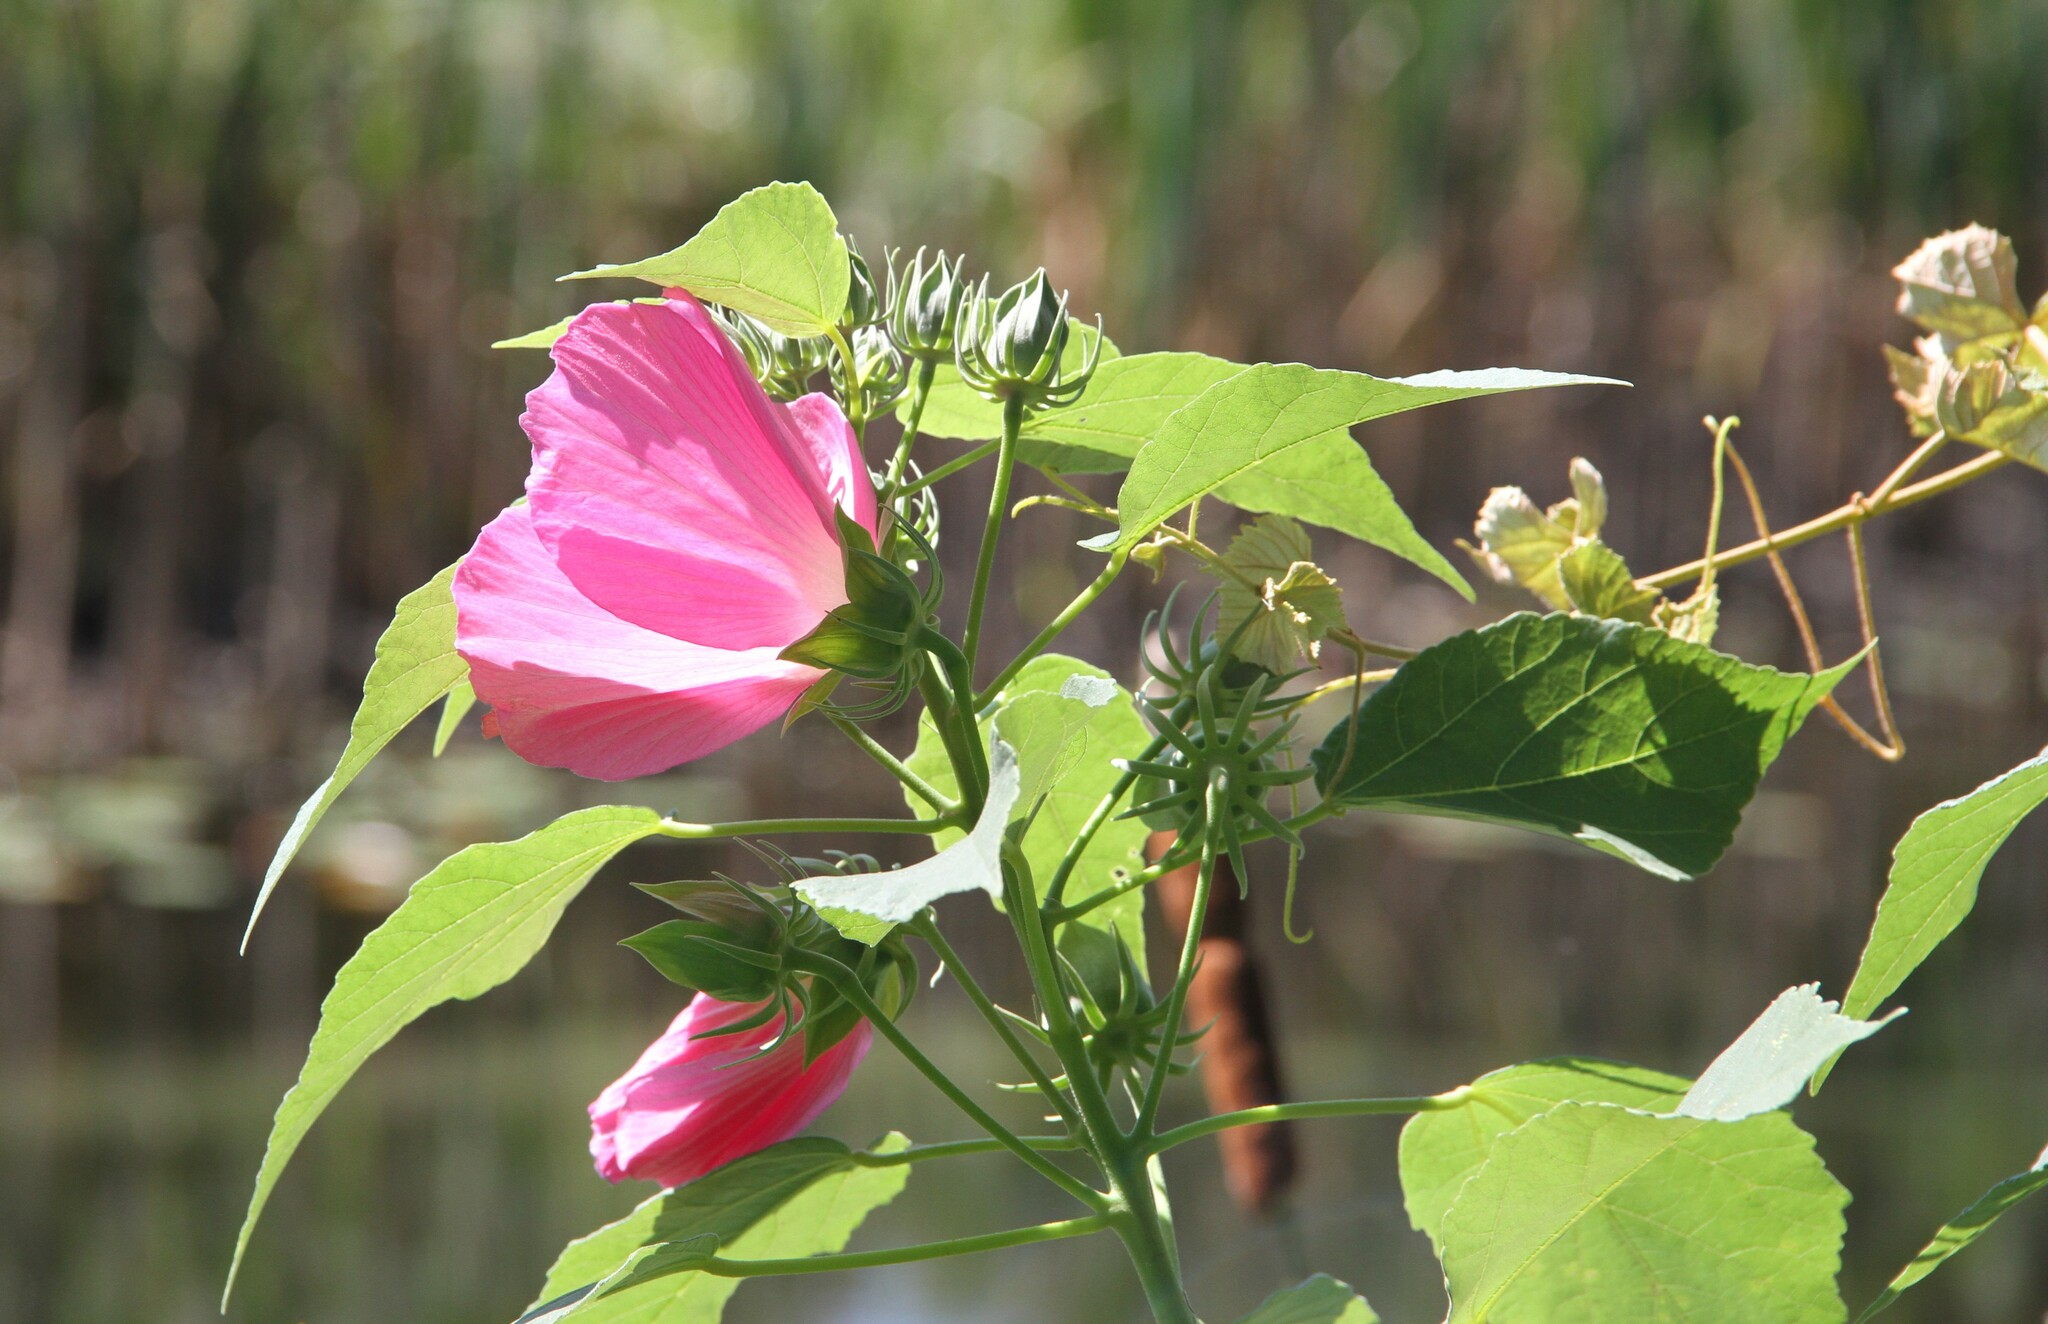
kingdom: Plantae
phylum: Tracheophyta
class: Magnoliopsida
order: Malvales
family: Malvaceae
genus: Hibiscus
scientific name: Hibiscus moscheutos
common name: Common rose-mallow
